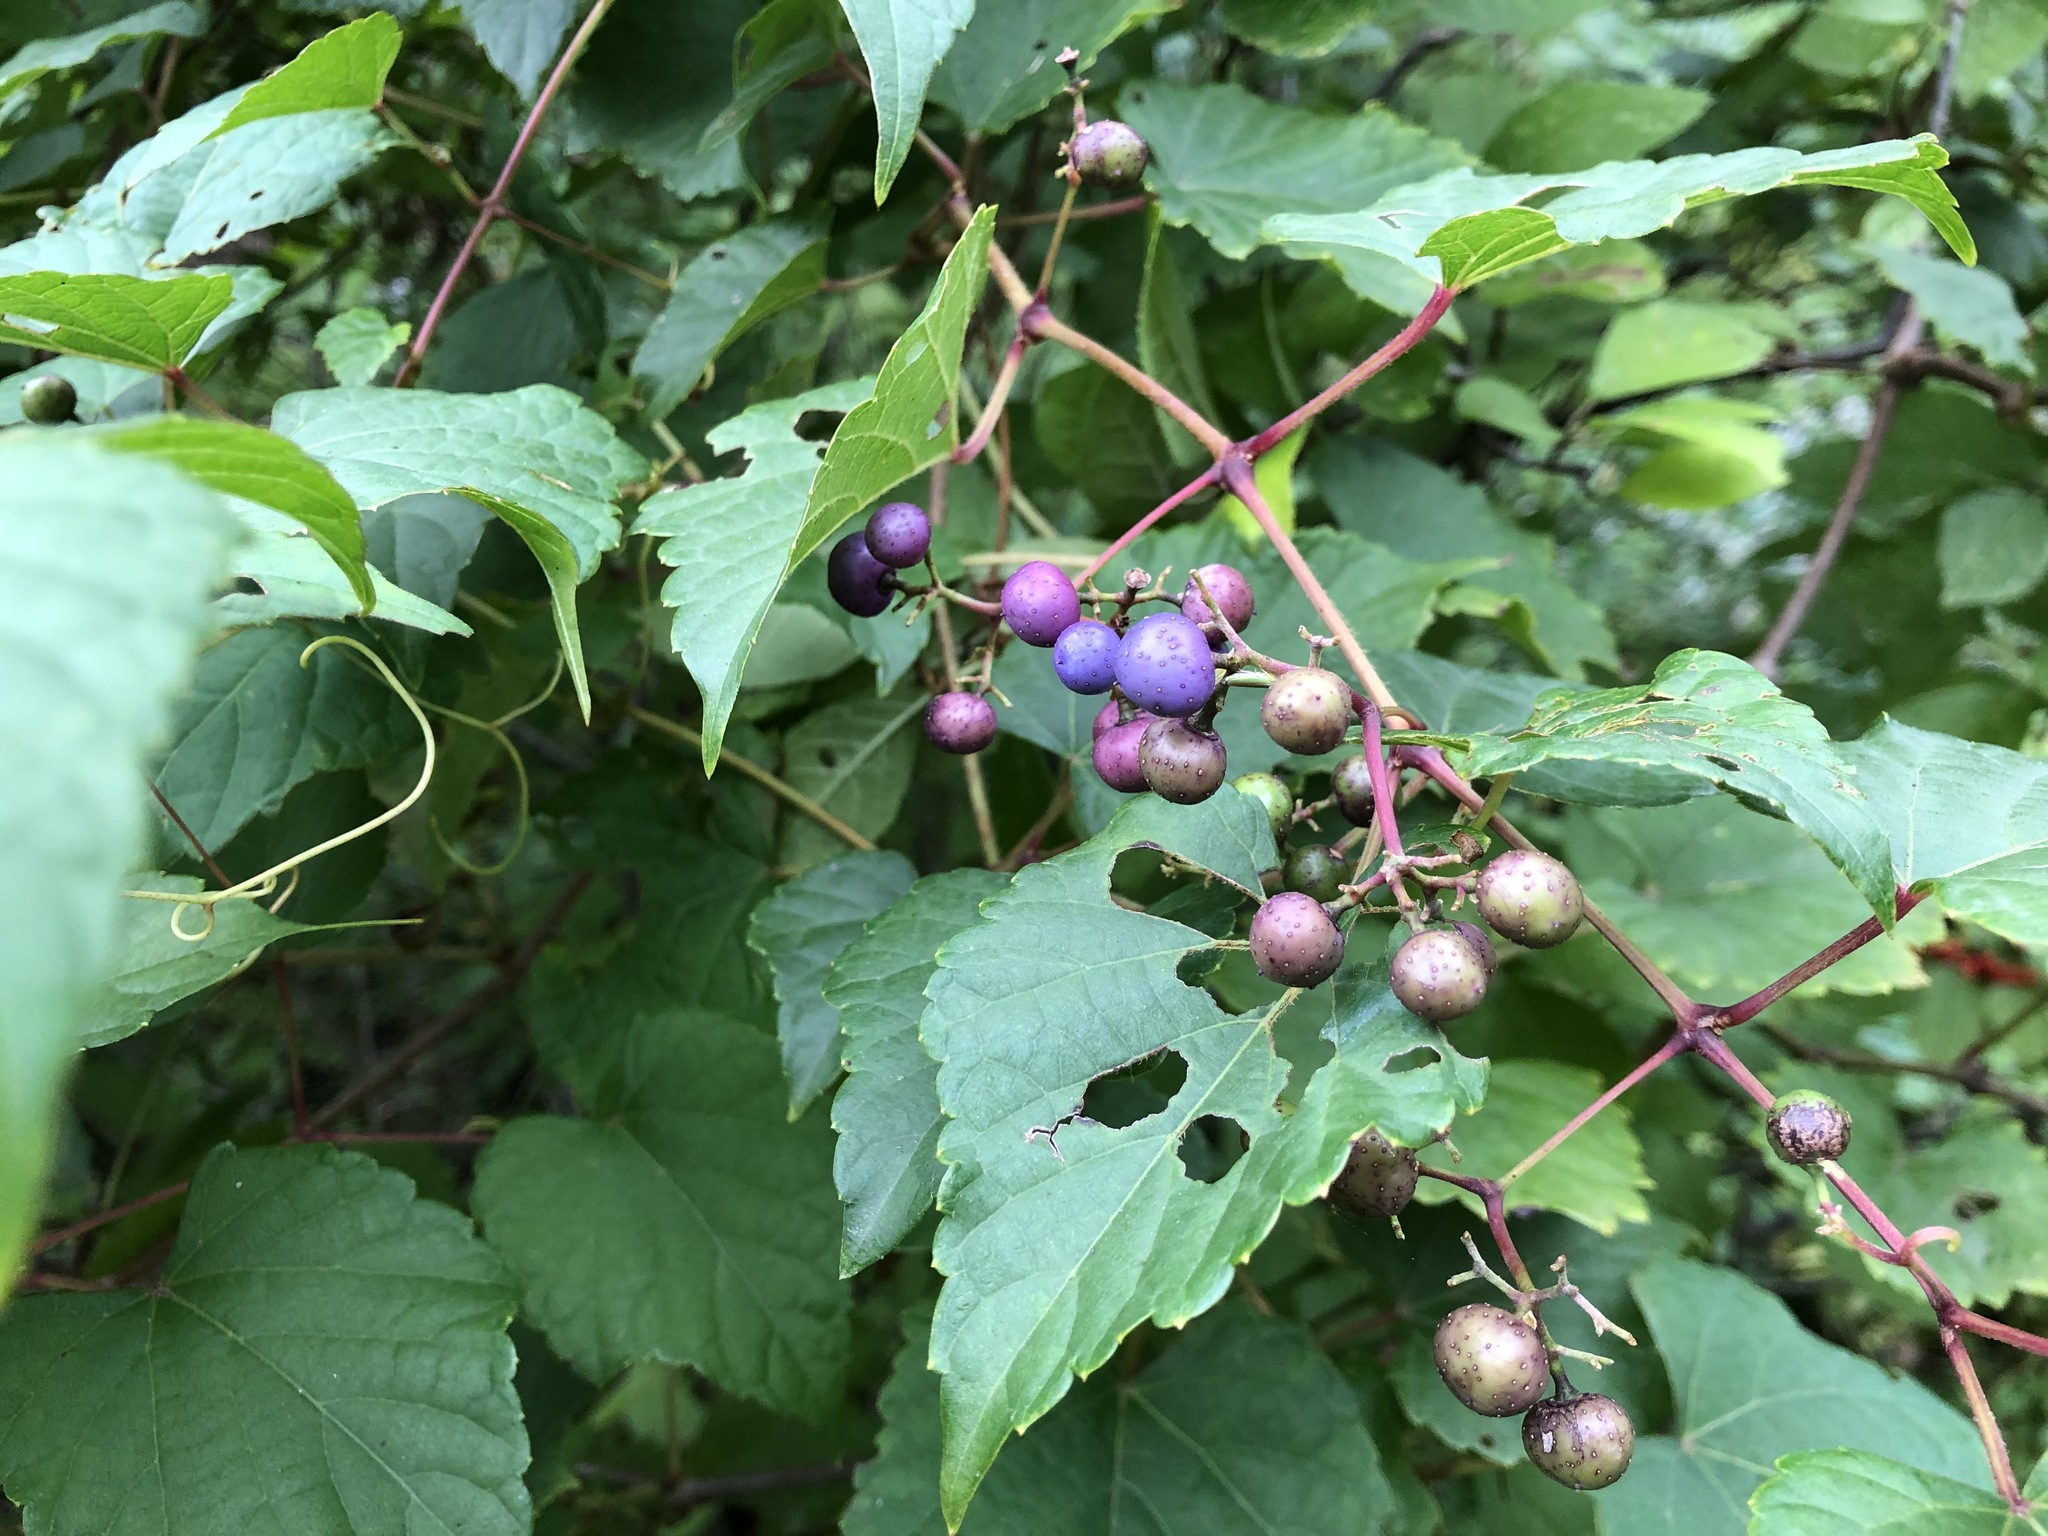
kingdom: Plantae
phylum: Tracheophyta
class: Magnoliopsida
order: Vitales
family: Vitaceae
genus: Ampelopsis
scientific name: Ampelopsis glandulosa
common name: Amur peppervine
